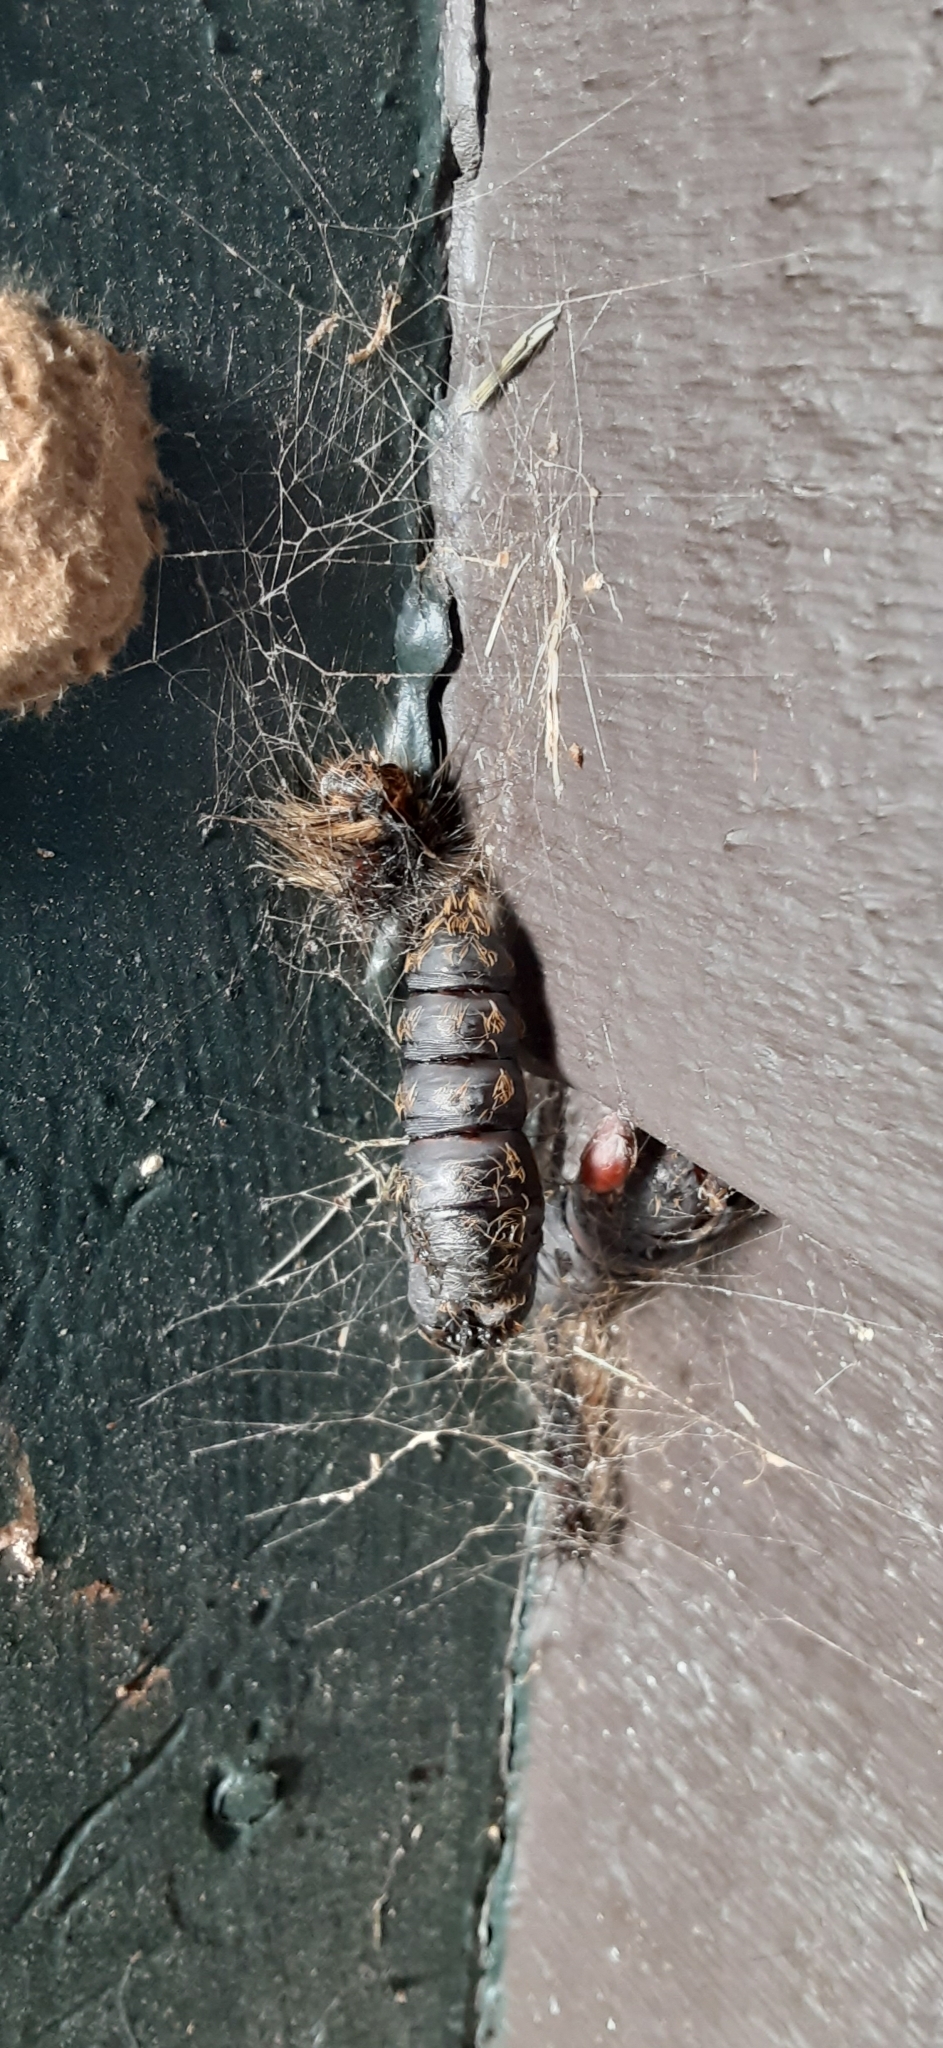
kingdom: Animalia
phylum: Arthropoda
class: Insecta
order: Lepidoptera
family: Erebidae
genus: Lymantria
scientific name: Lymantria dispar
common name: Gypsy moth
